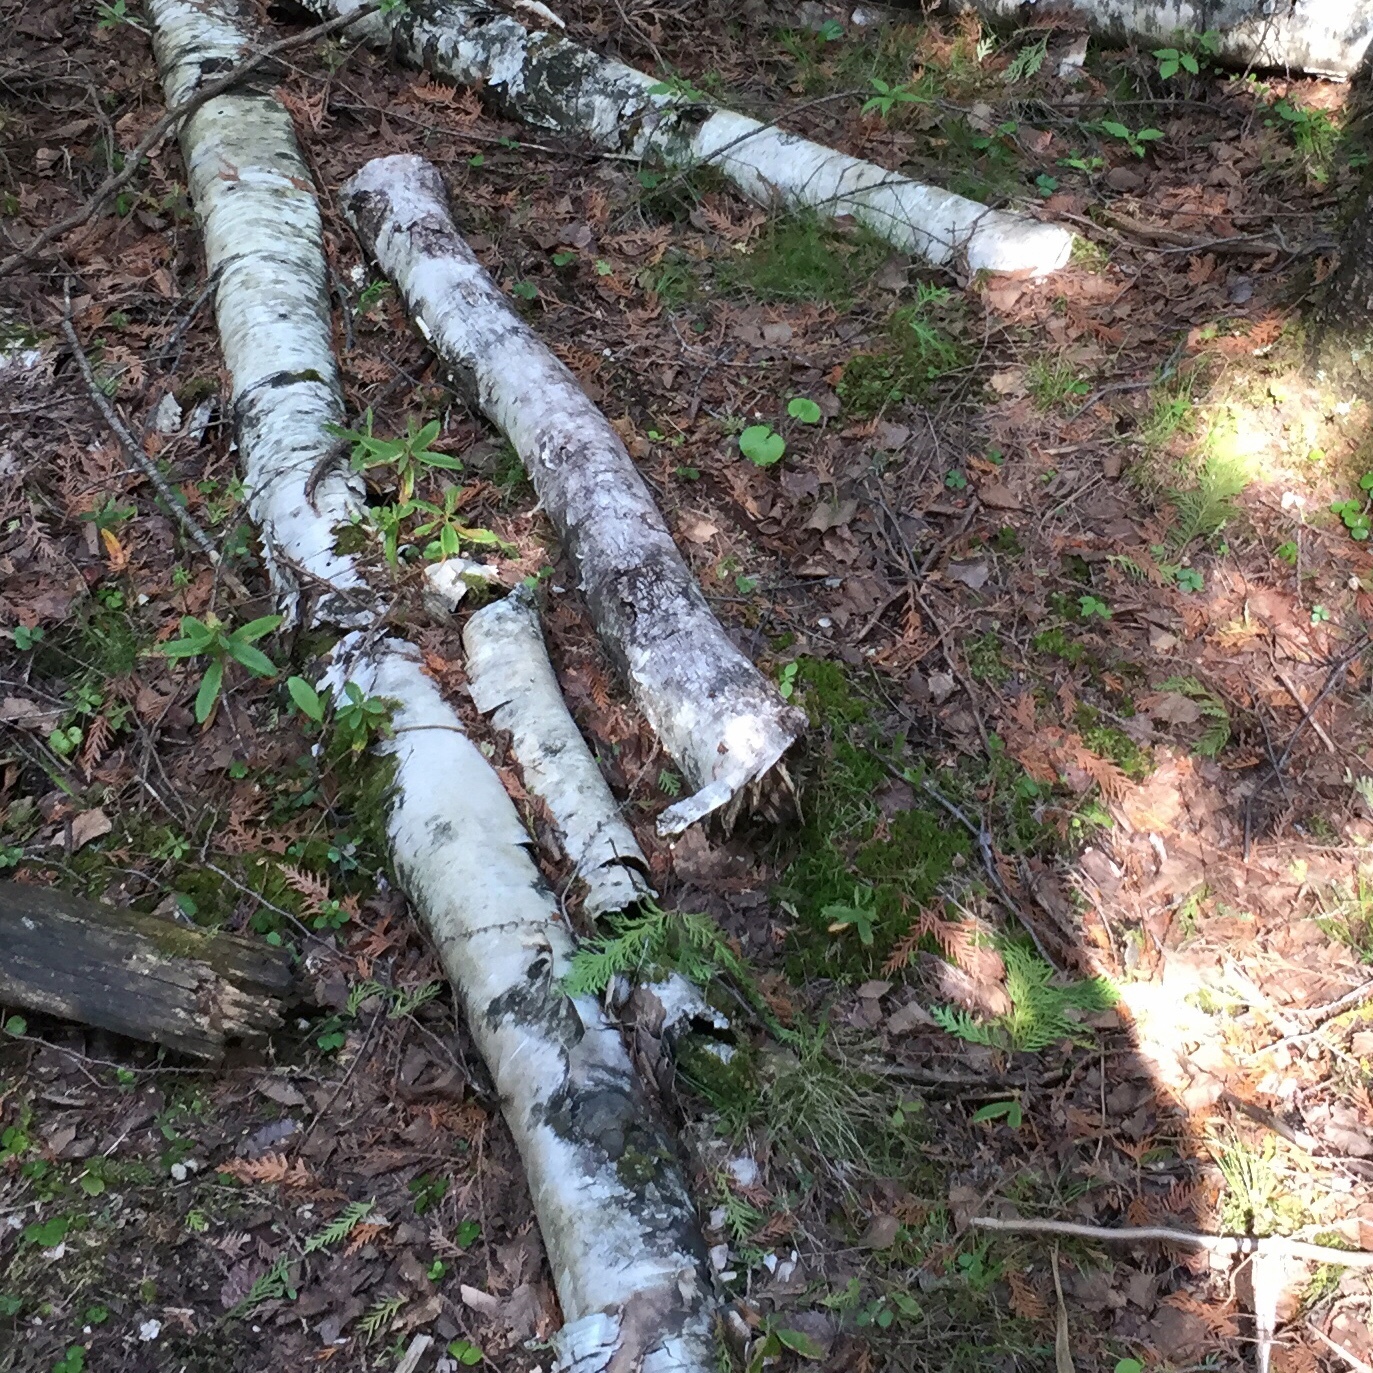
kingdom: Plantae
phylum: Tracheophyta
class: Magnoliopsida
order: Fagales
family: Betulaceae
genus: Betula
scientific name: Betula papyrifera
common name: Paper birch
